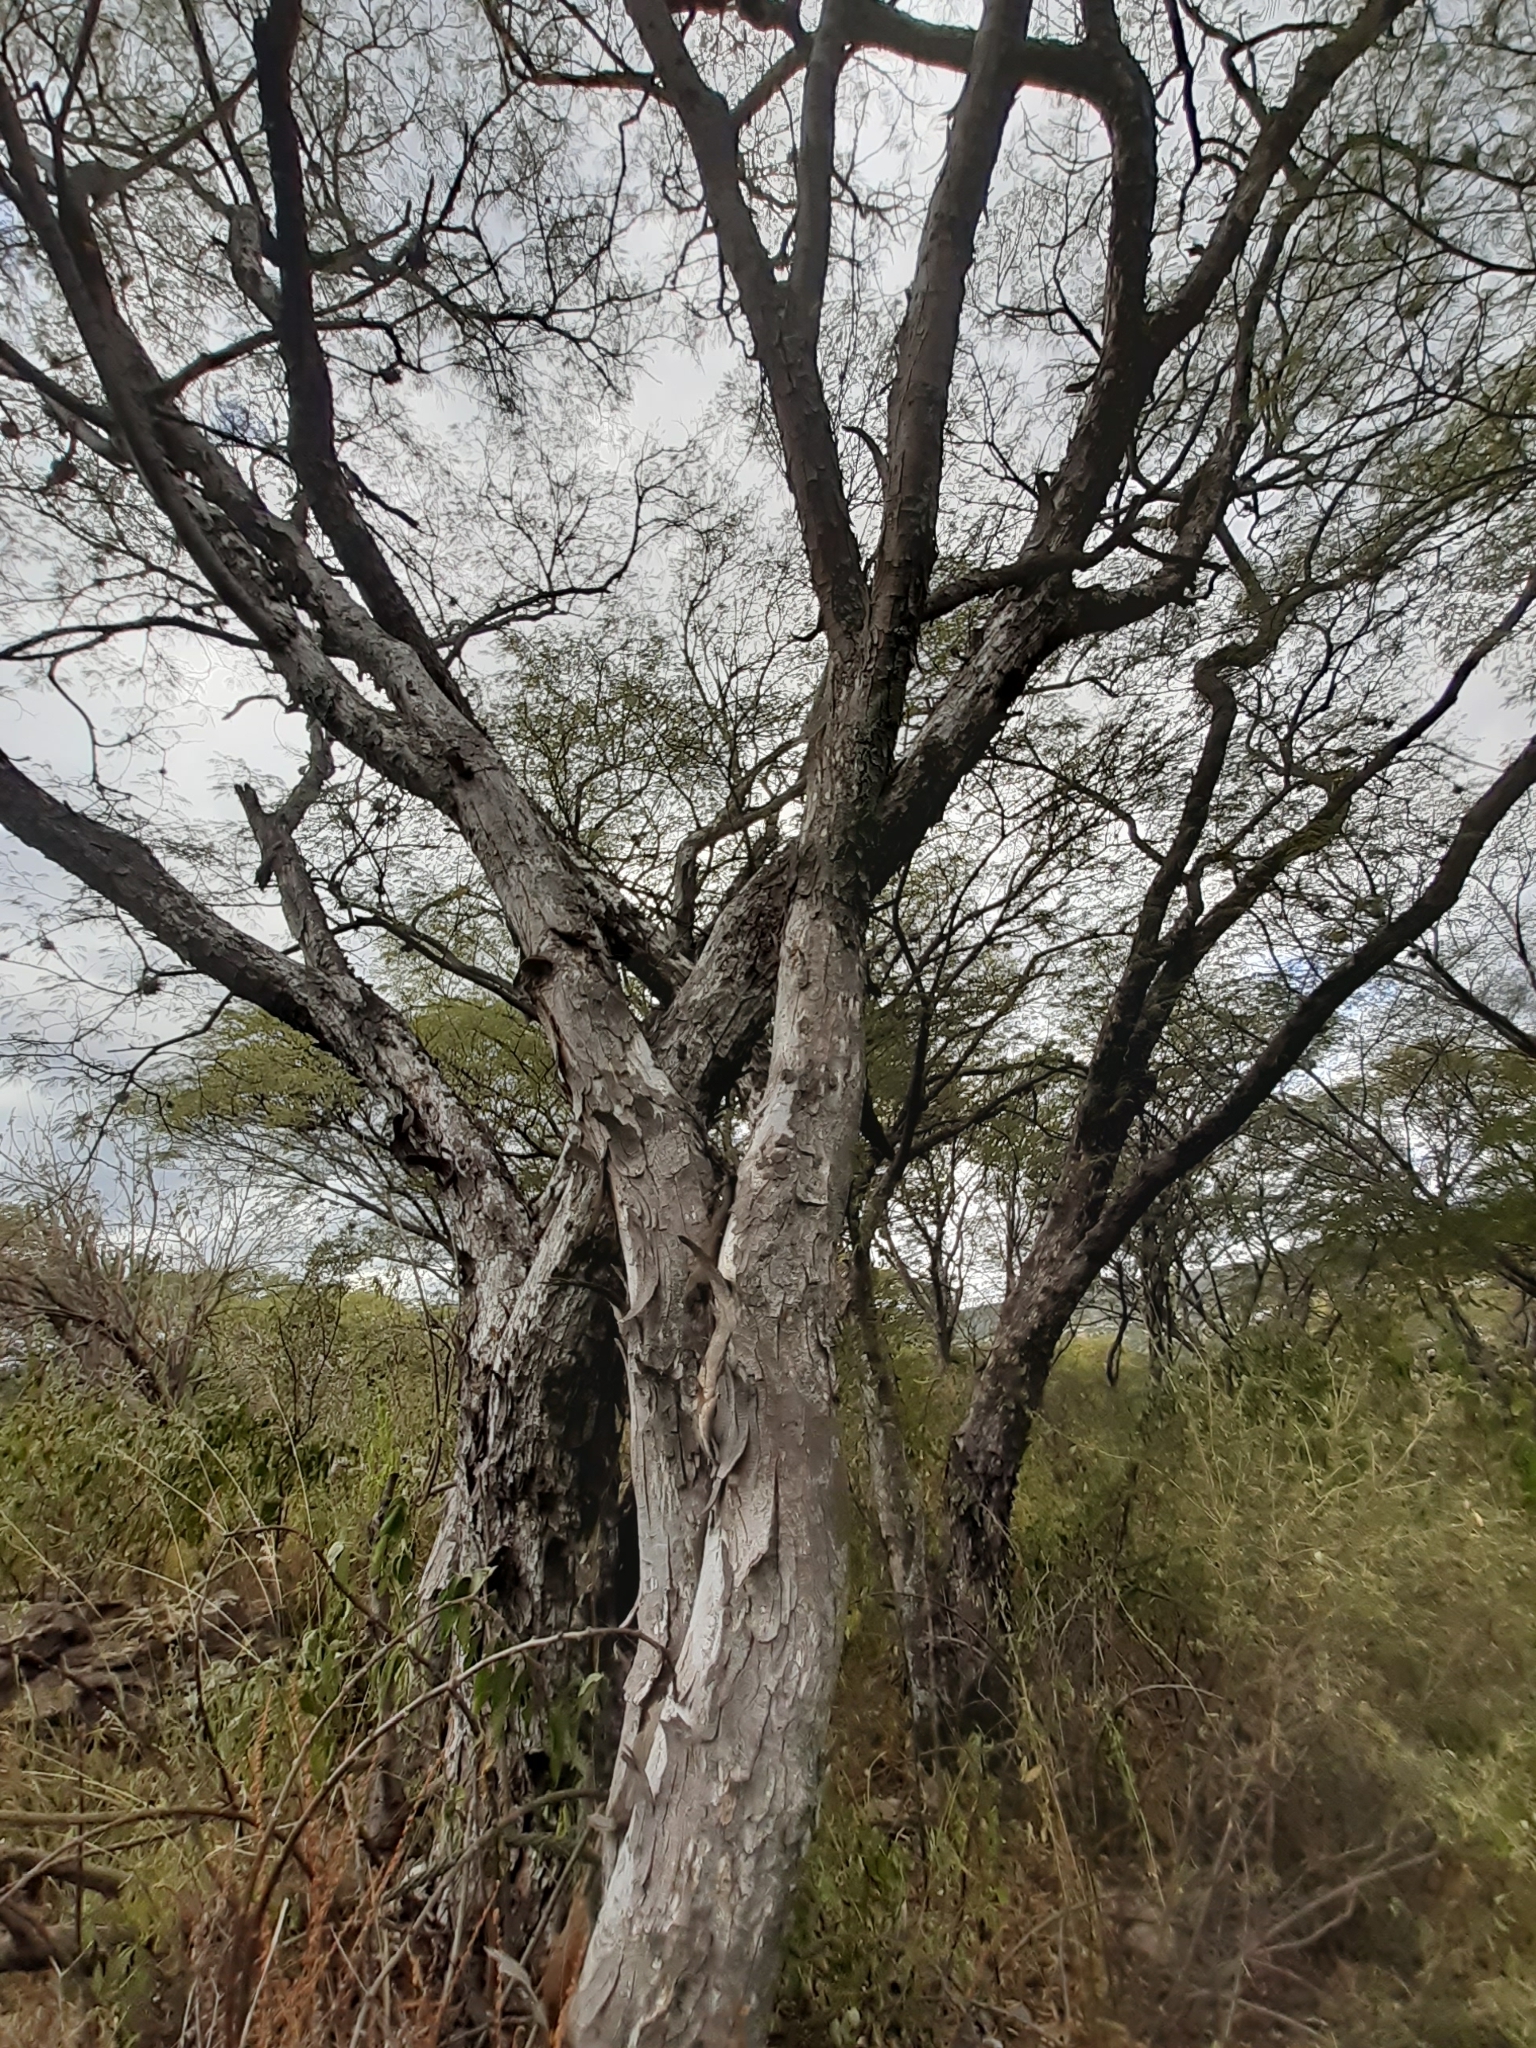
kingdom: Plantae
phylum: Tracheophyta
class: Magnoliopsida
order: Fabales
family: Fabaceae
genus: Lysiloma
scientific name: Lysiloma divaricatum
